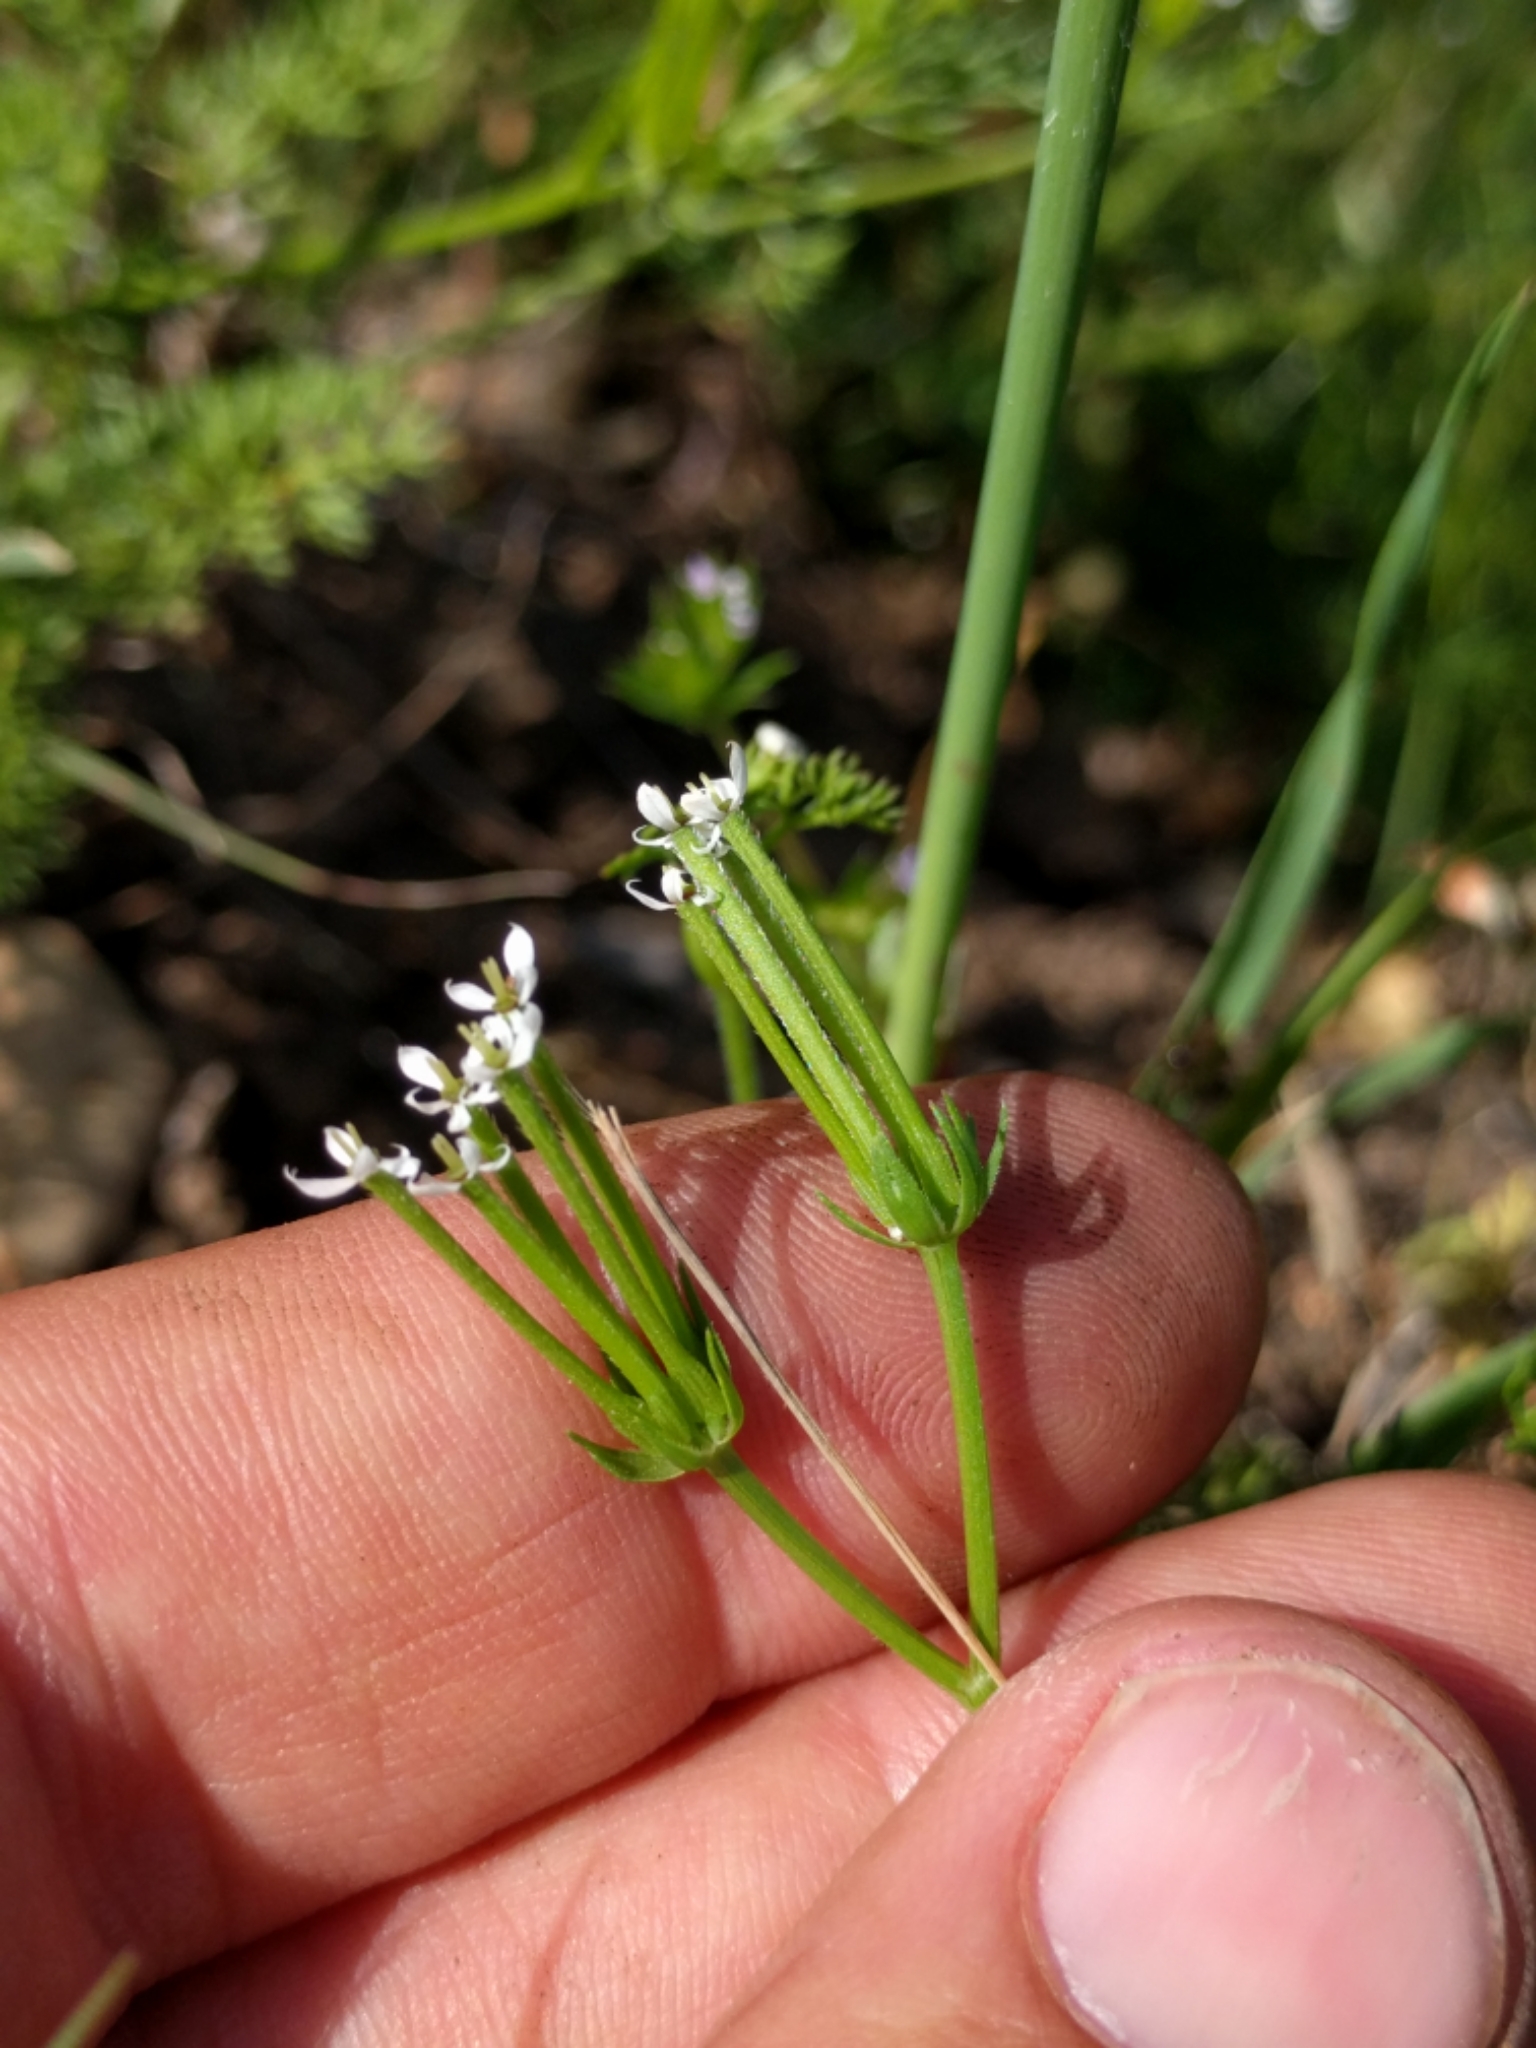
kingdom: Plantae
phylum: Tracheophyta
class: Magnoliopsida
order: Apiales
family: Apiaceae
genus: Scandix
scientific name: Scandix pecten-veneris
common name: Shepherd's-needle
